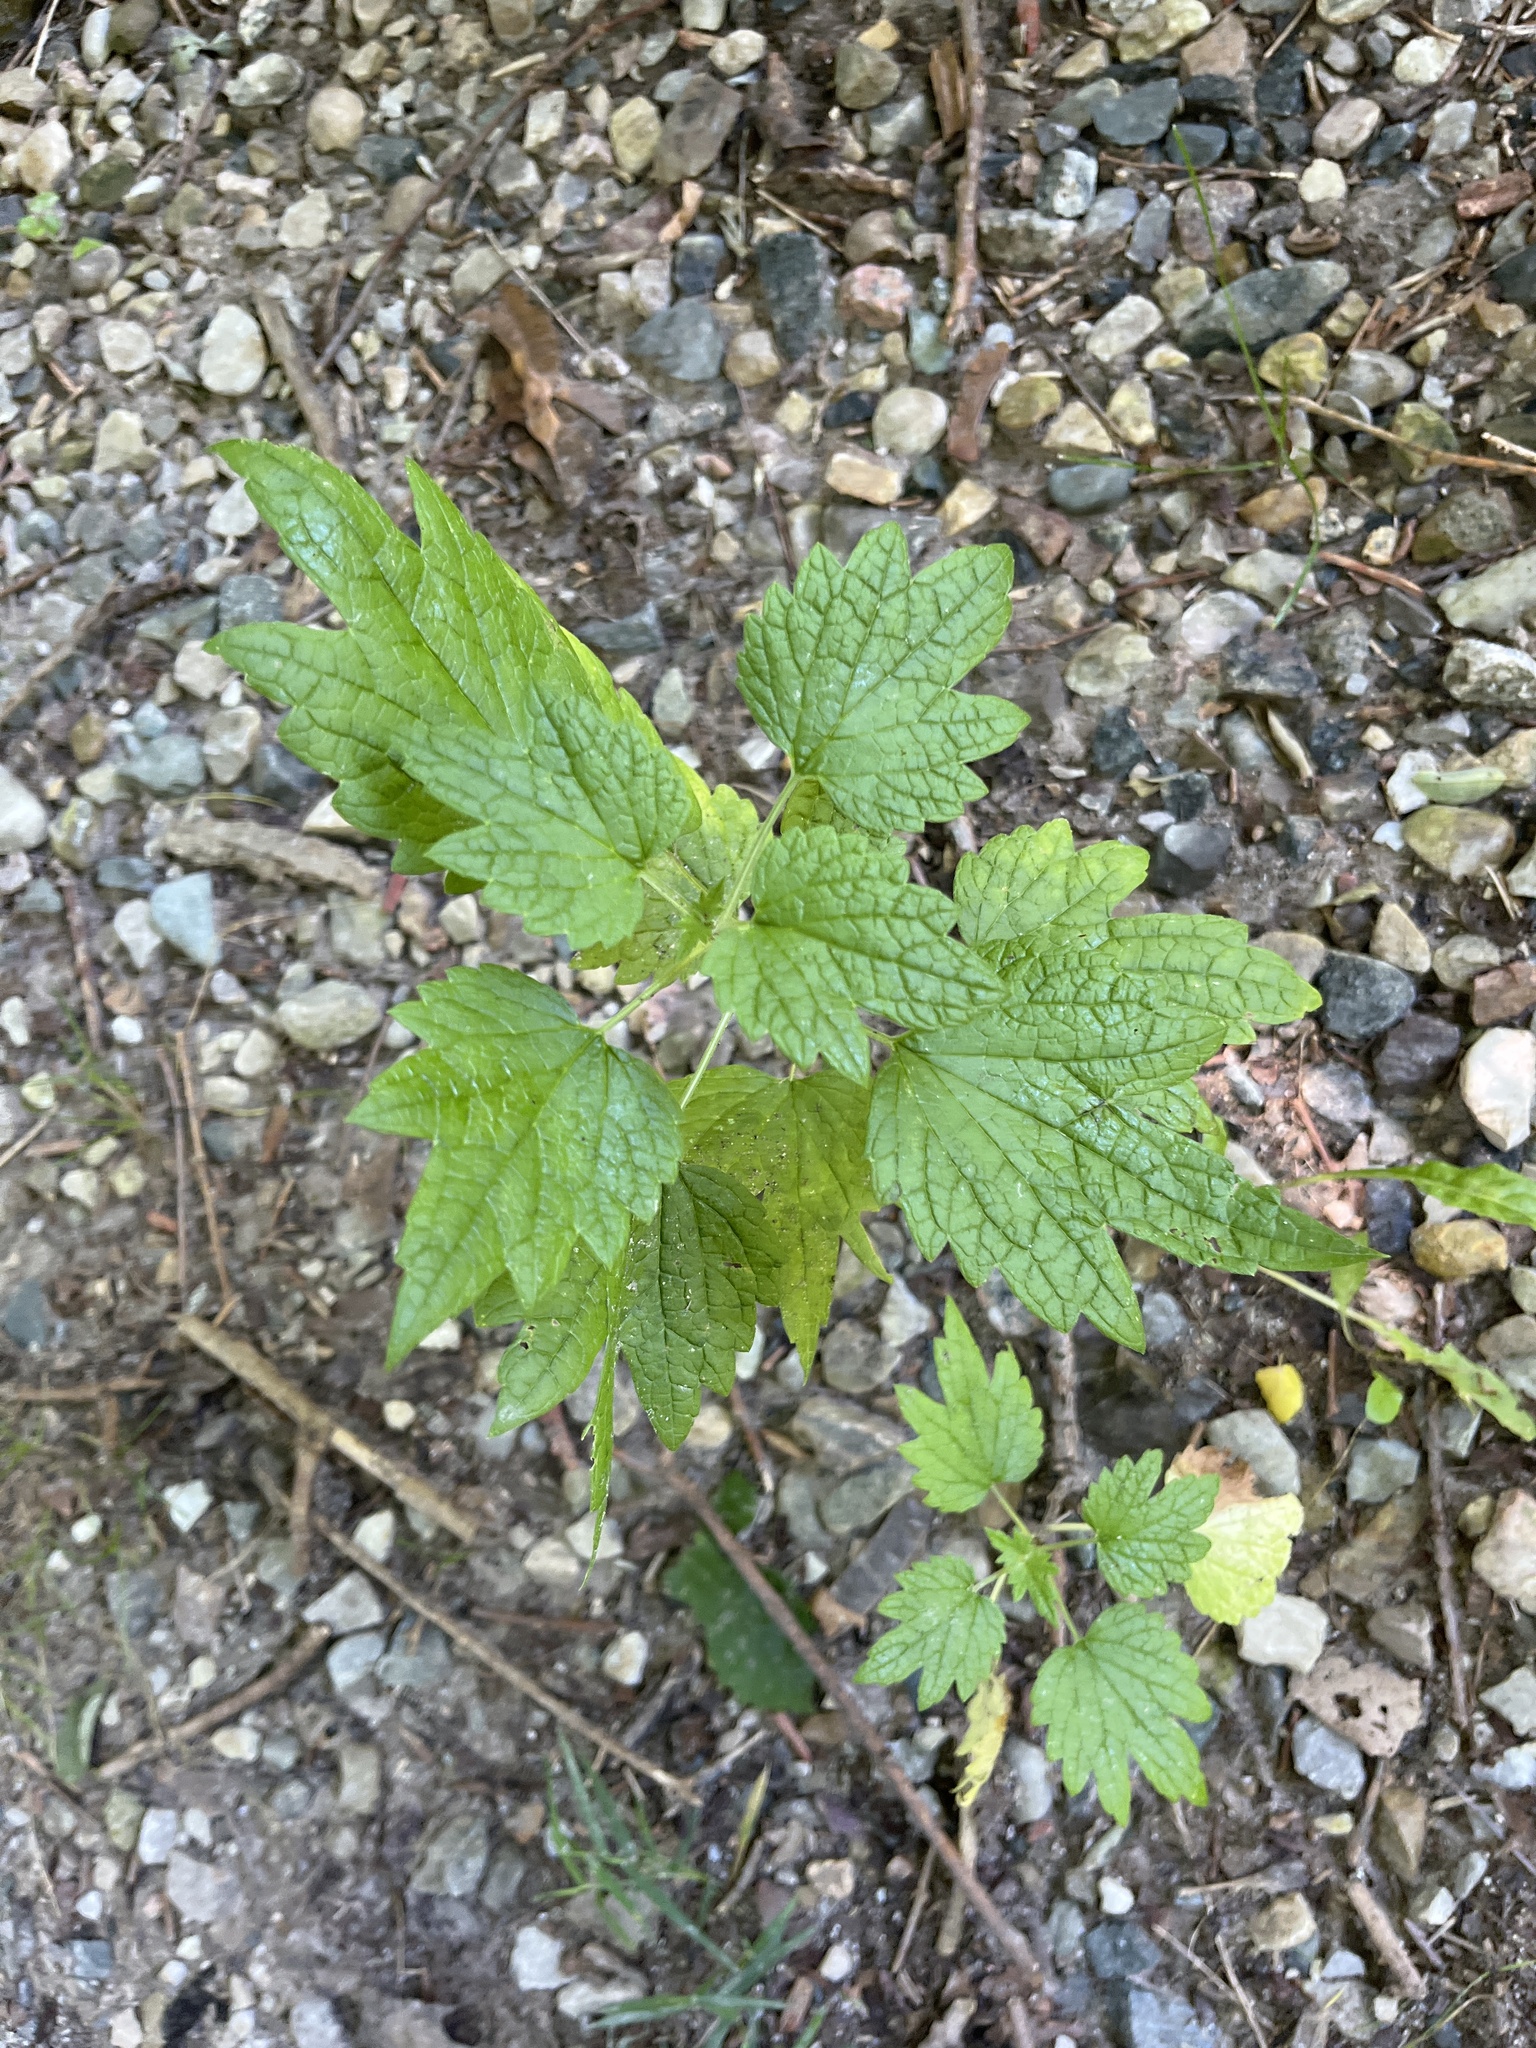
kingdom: Plantae
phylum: Tracheophyta
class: Magnoliopsida
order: Lamiales
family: Lamiaceae
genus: Leonurus
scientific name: Leonurus cardiaca
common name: Motherwort
